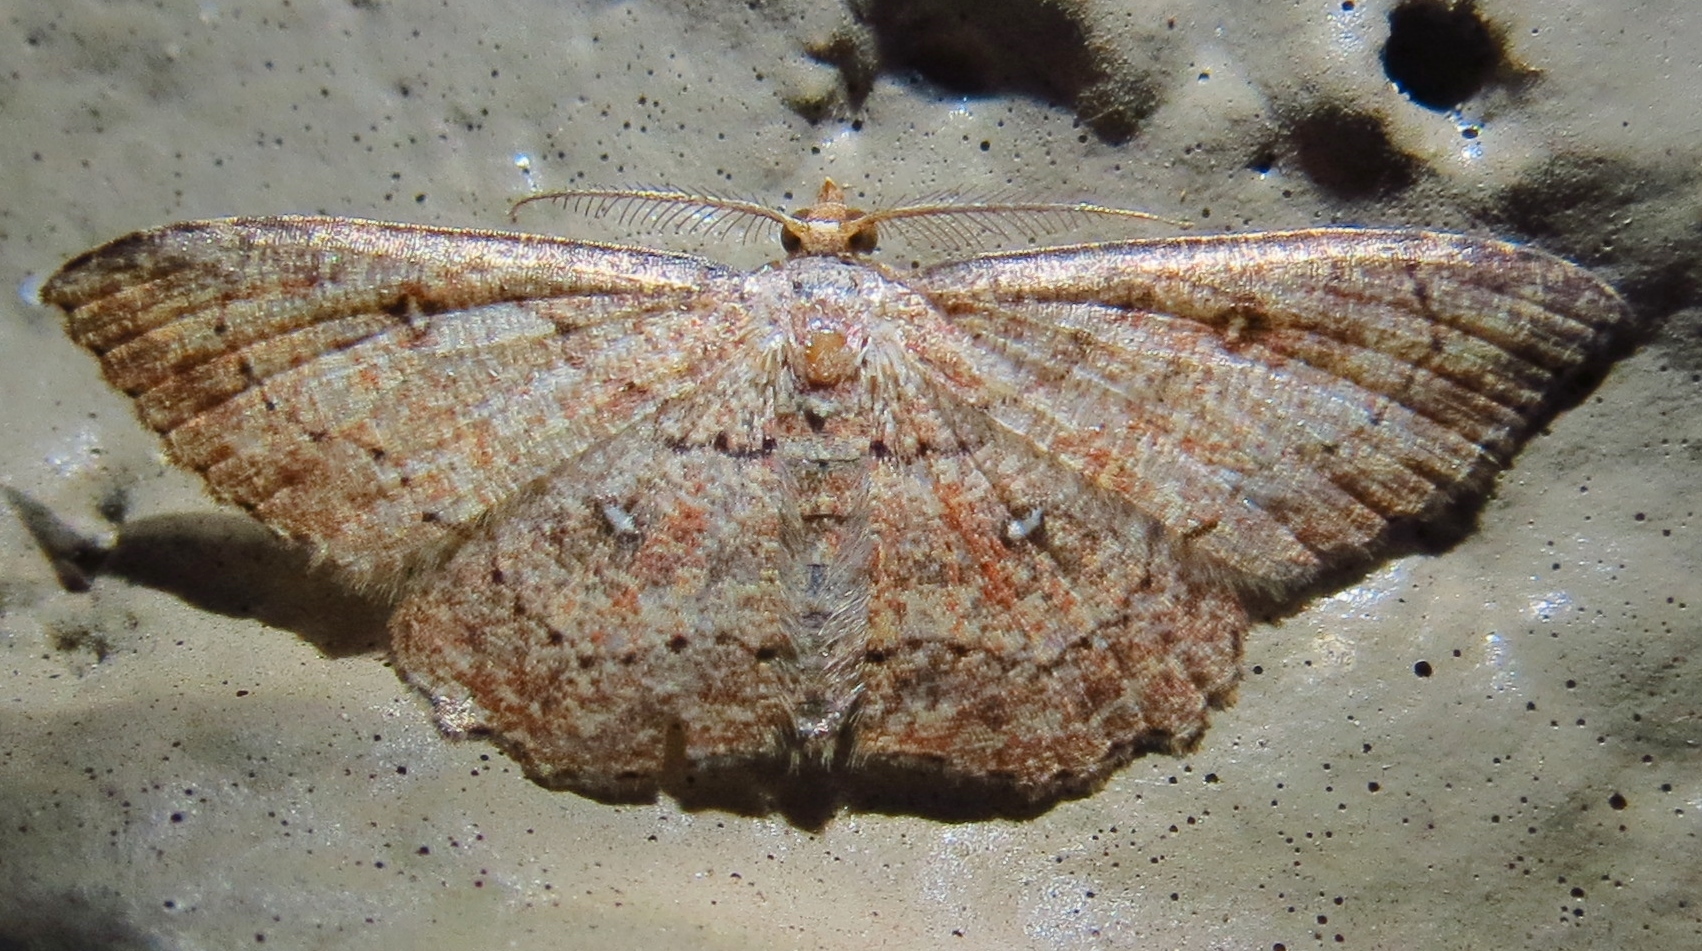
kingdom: Animalia
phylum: Arthropoda
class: Insecta
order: Lepidoptera
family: Geometridae
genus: Cyclophora
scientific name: Cyclophora nanaria
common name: Cankerworm
